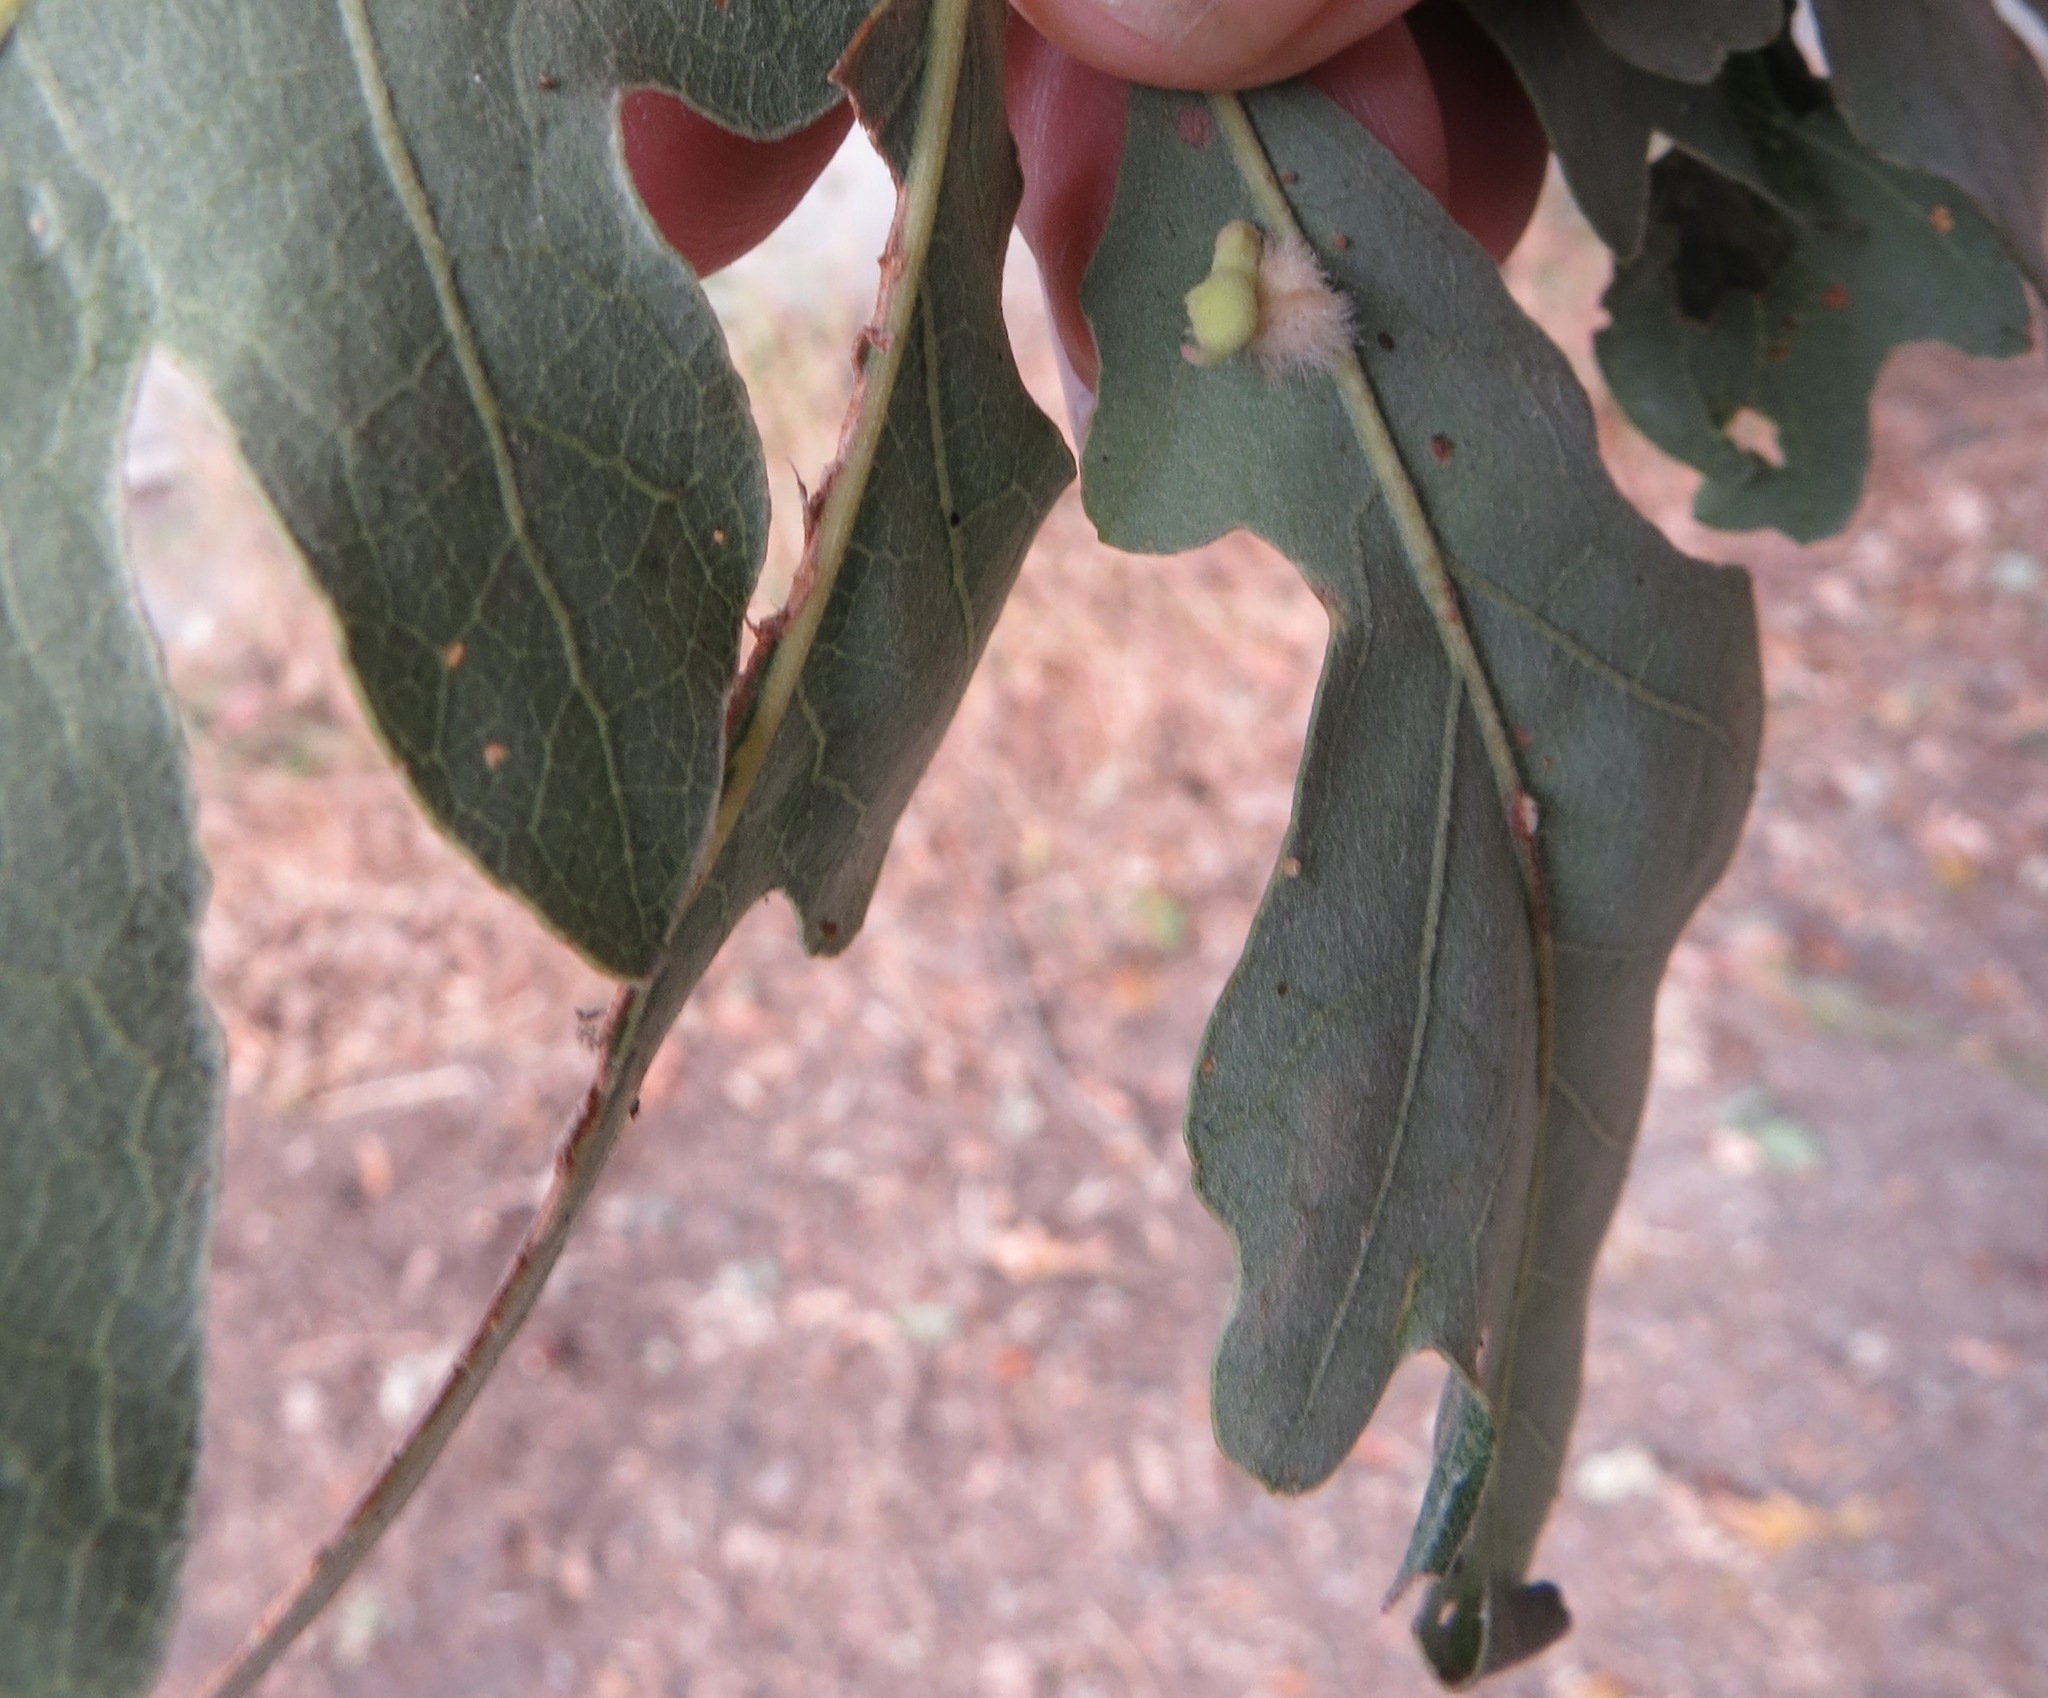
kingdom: Animalia
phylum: Arthropoda
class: Insecta
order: Hymenoptera
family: Cynipidae
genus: Andricus
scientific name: Andricus Druon fullawayi
